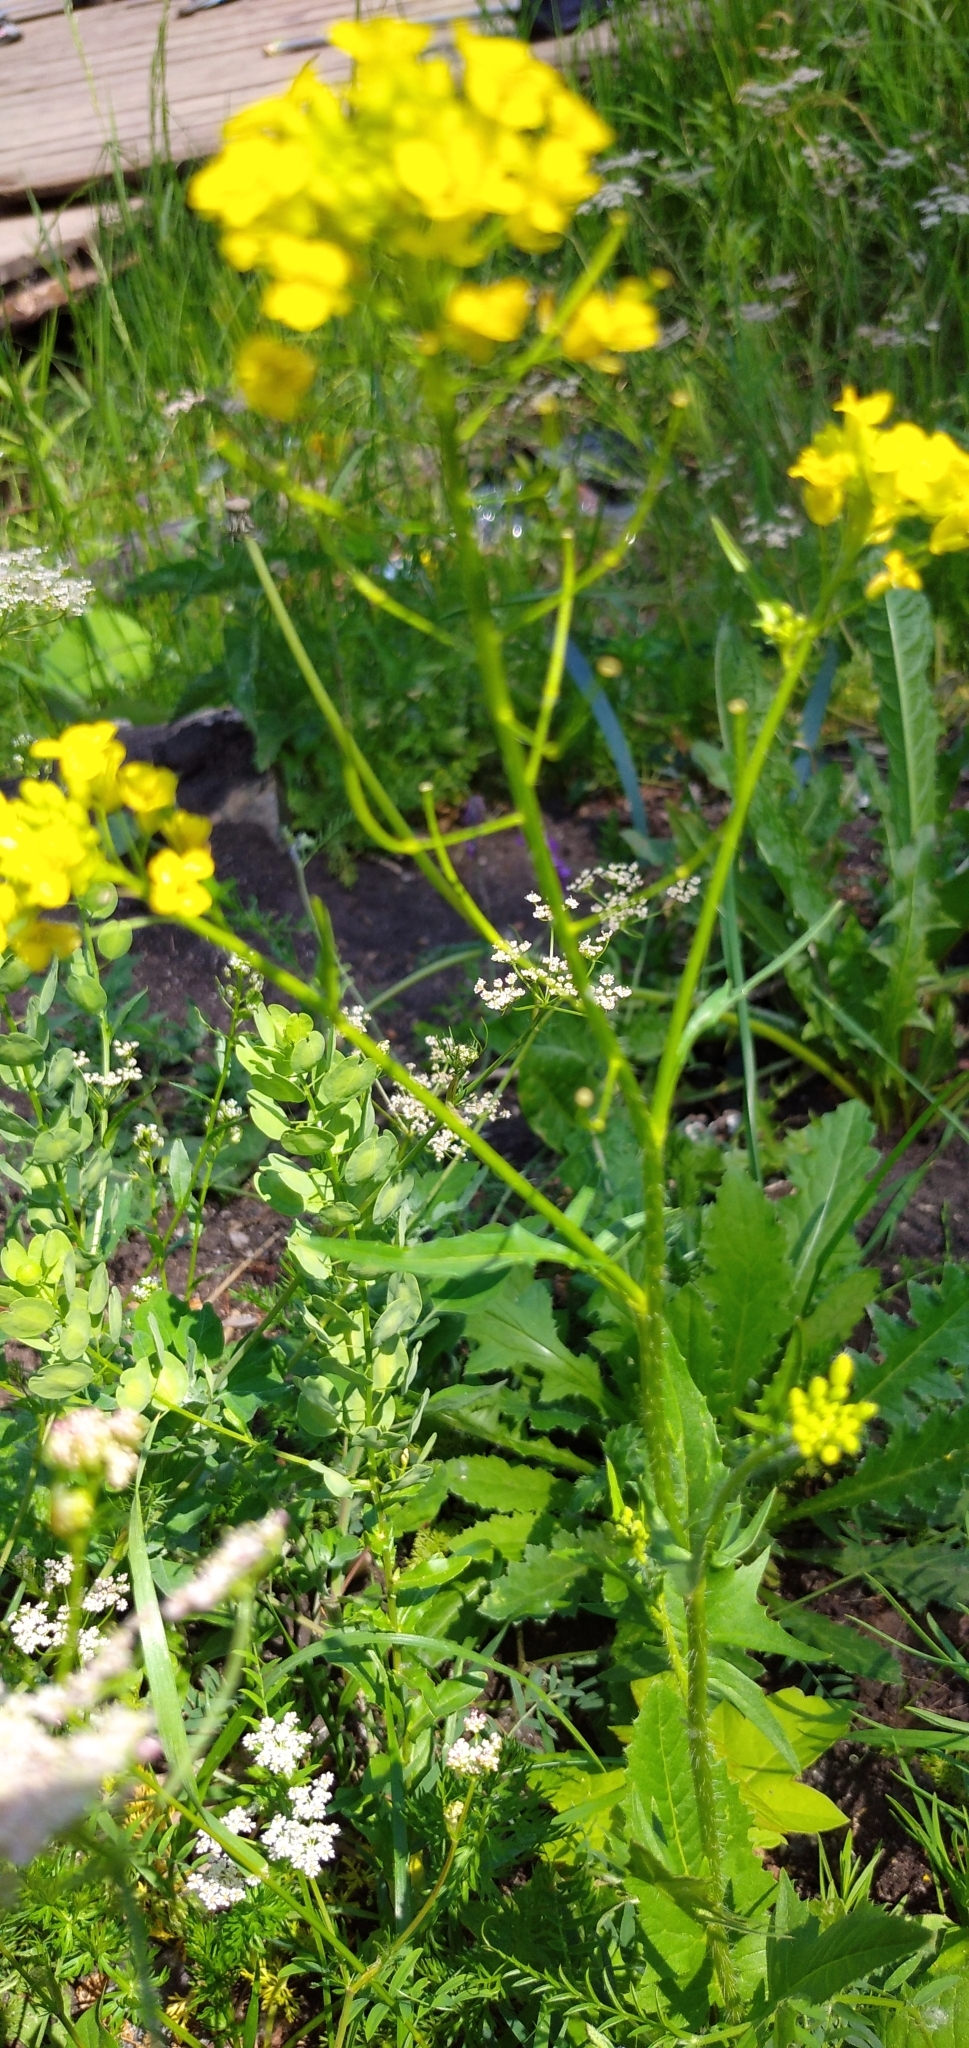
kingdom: Plantae
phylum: Tracheophyta
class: Magnoliopsida
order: Brassicales
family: Brassicaceae
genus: Sisymbrium
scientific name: Sisymbrium loeselii
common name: False london-rocket
